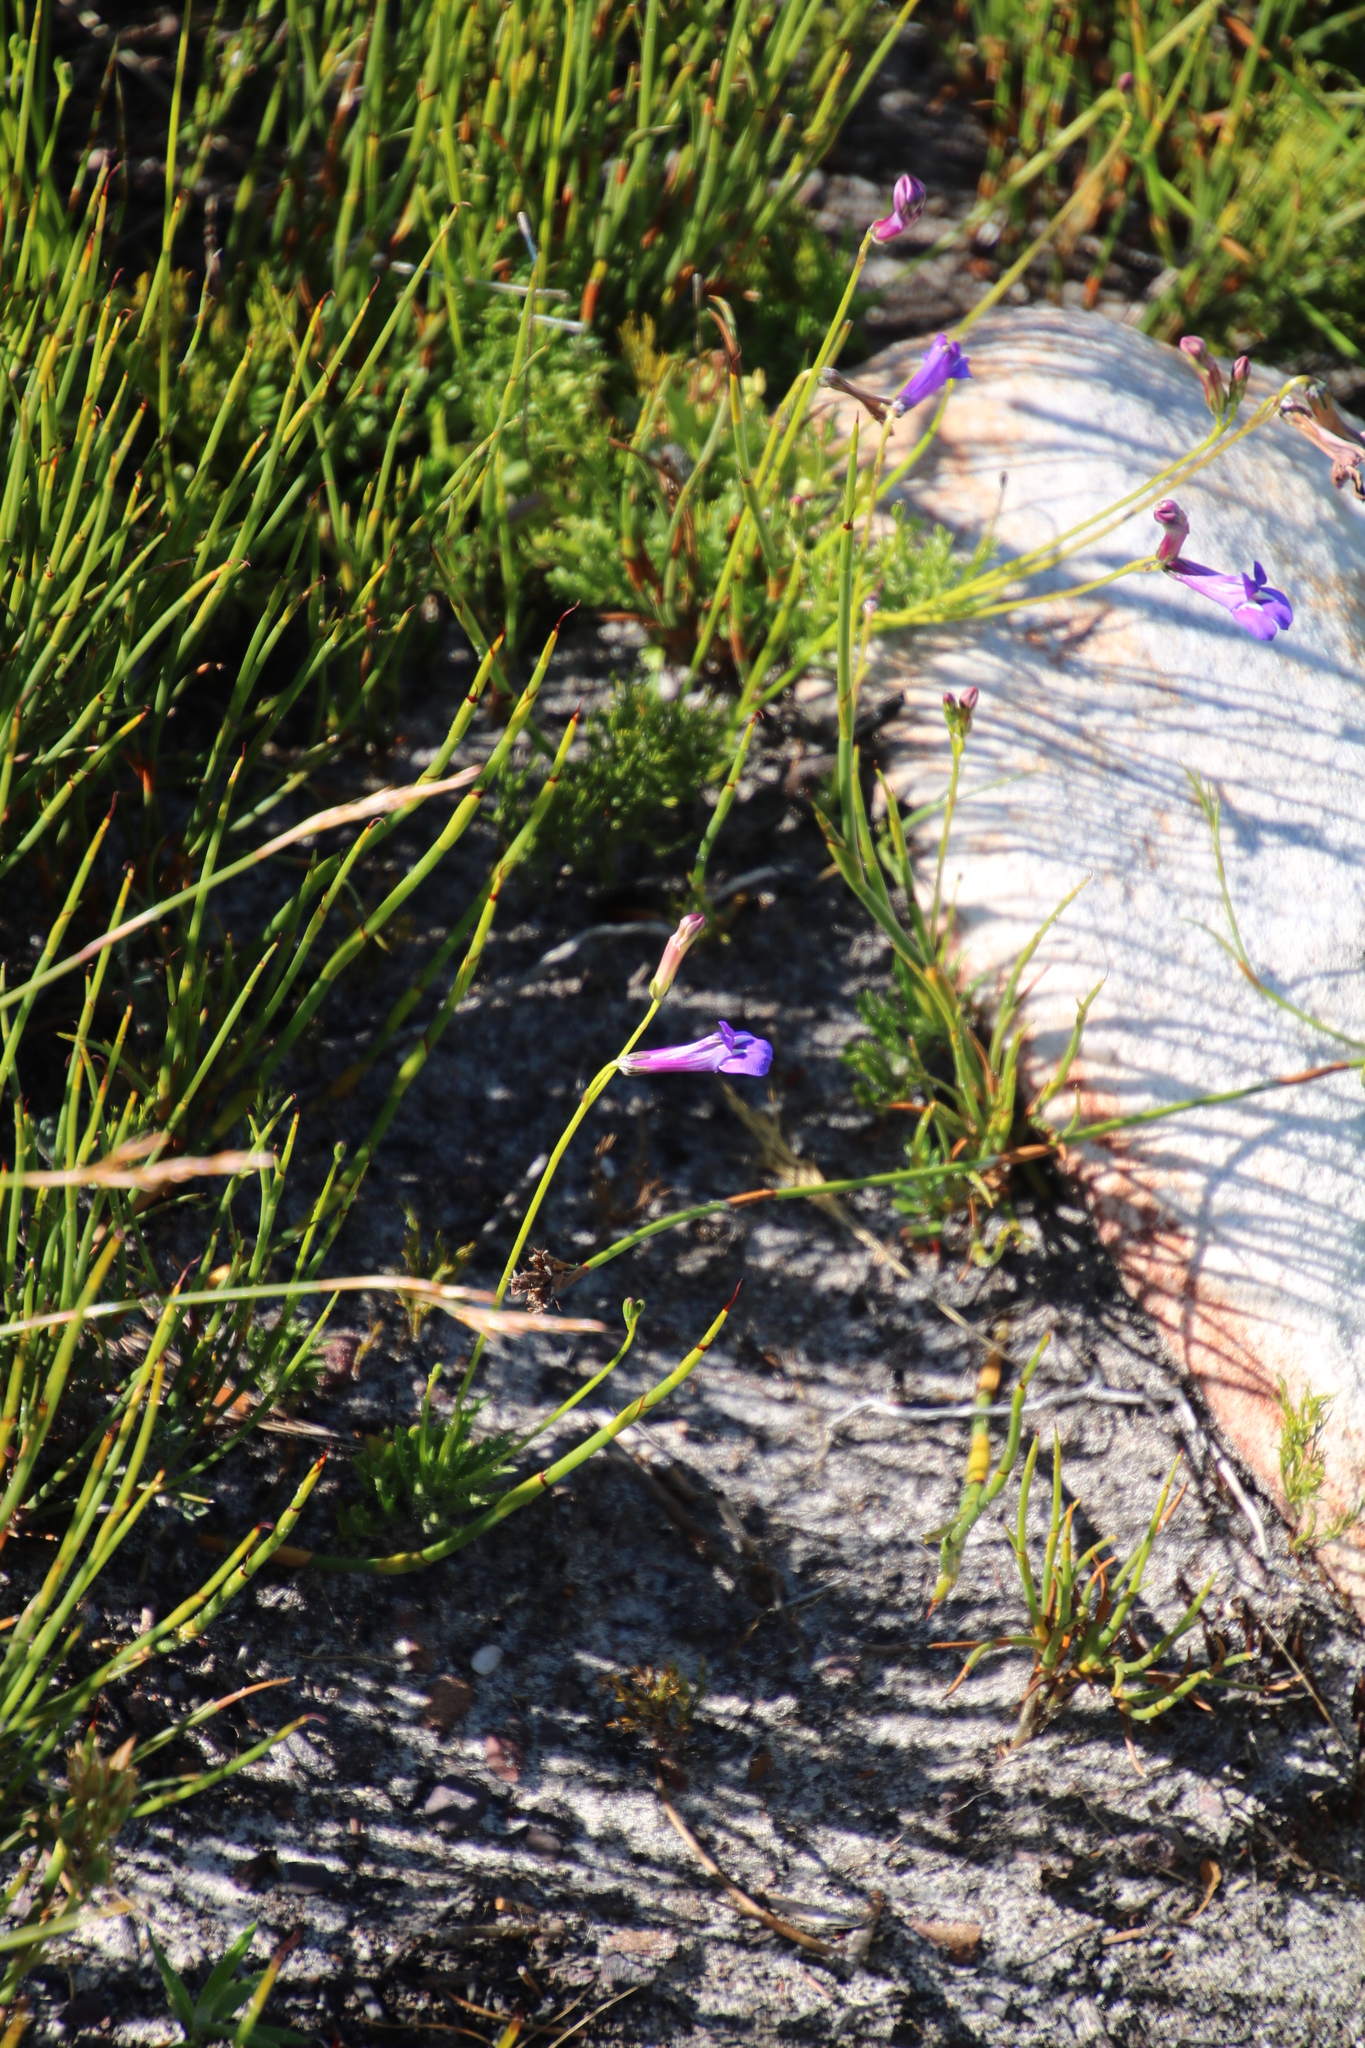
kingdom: Plantae
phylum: Tracheophyta
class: Magnoliopsida
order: Asterales
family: Campanulaceae
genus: Lobelia
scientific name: Lobelia coronopifolia
